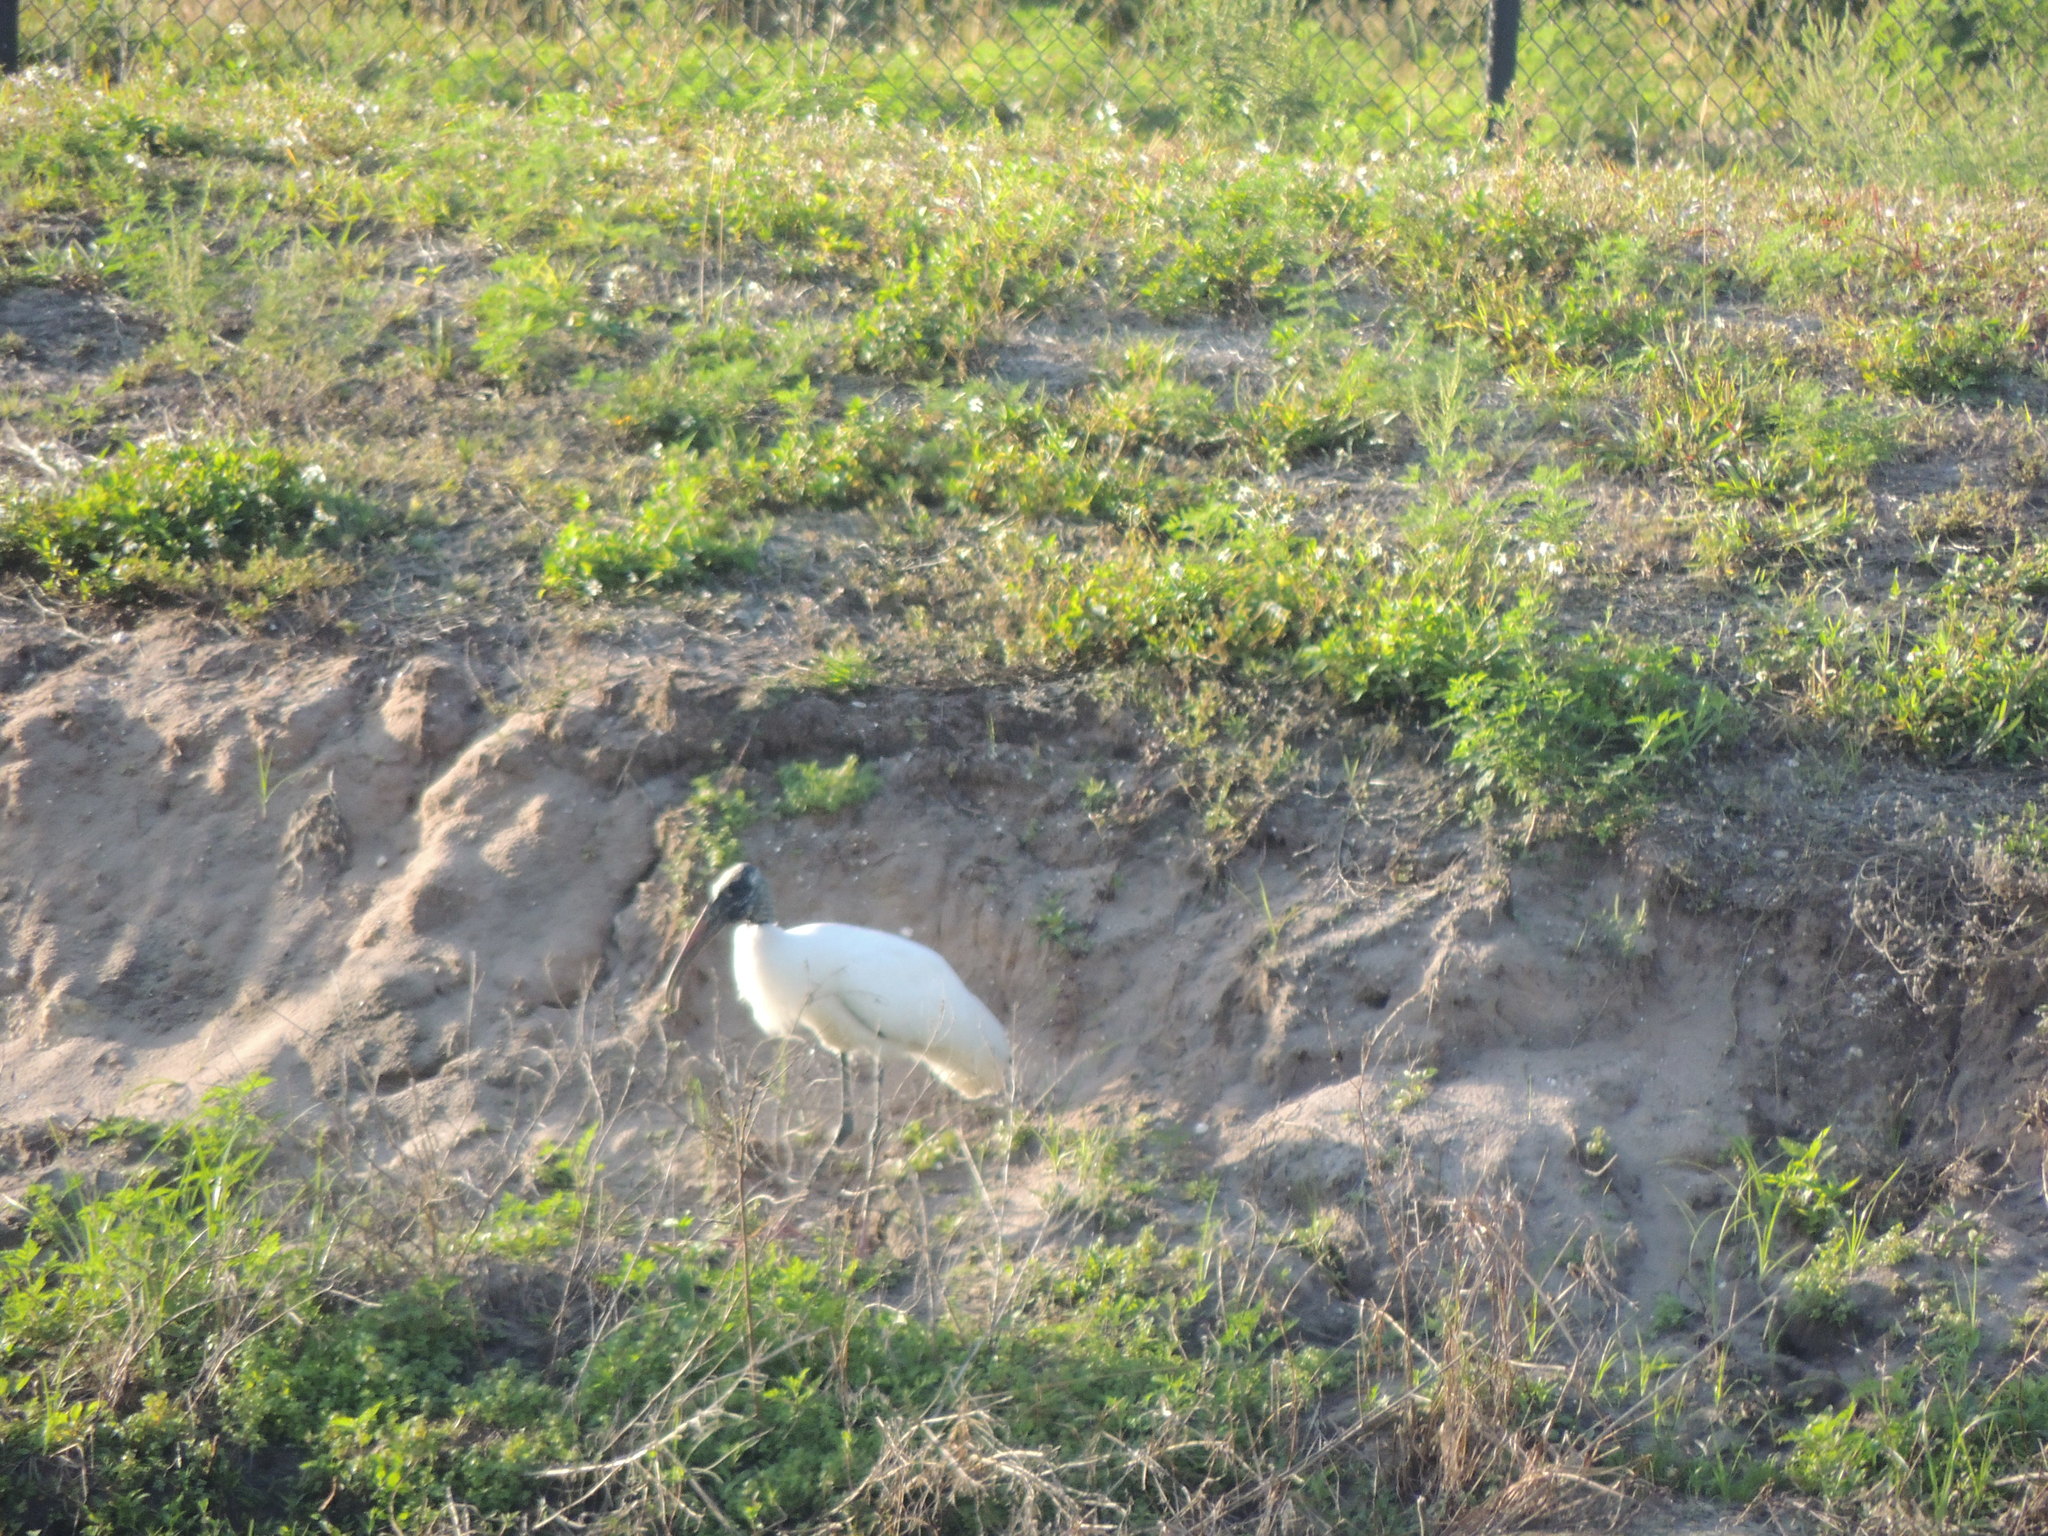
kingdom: Animalia
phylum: Chordata
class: Aves
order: Ciconiiformes
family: Ciconiidae
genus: Mycteria
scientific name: Mycteria americana
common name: Wood stork
